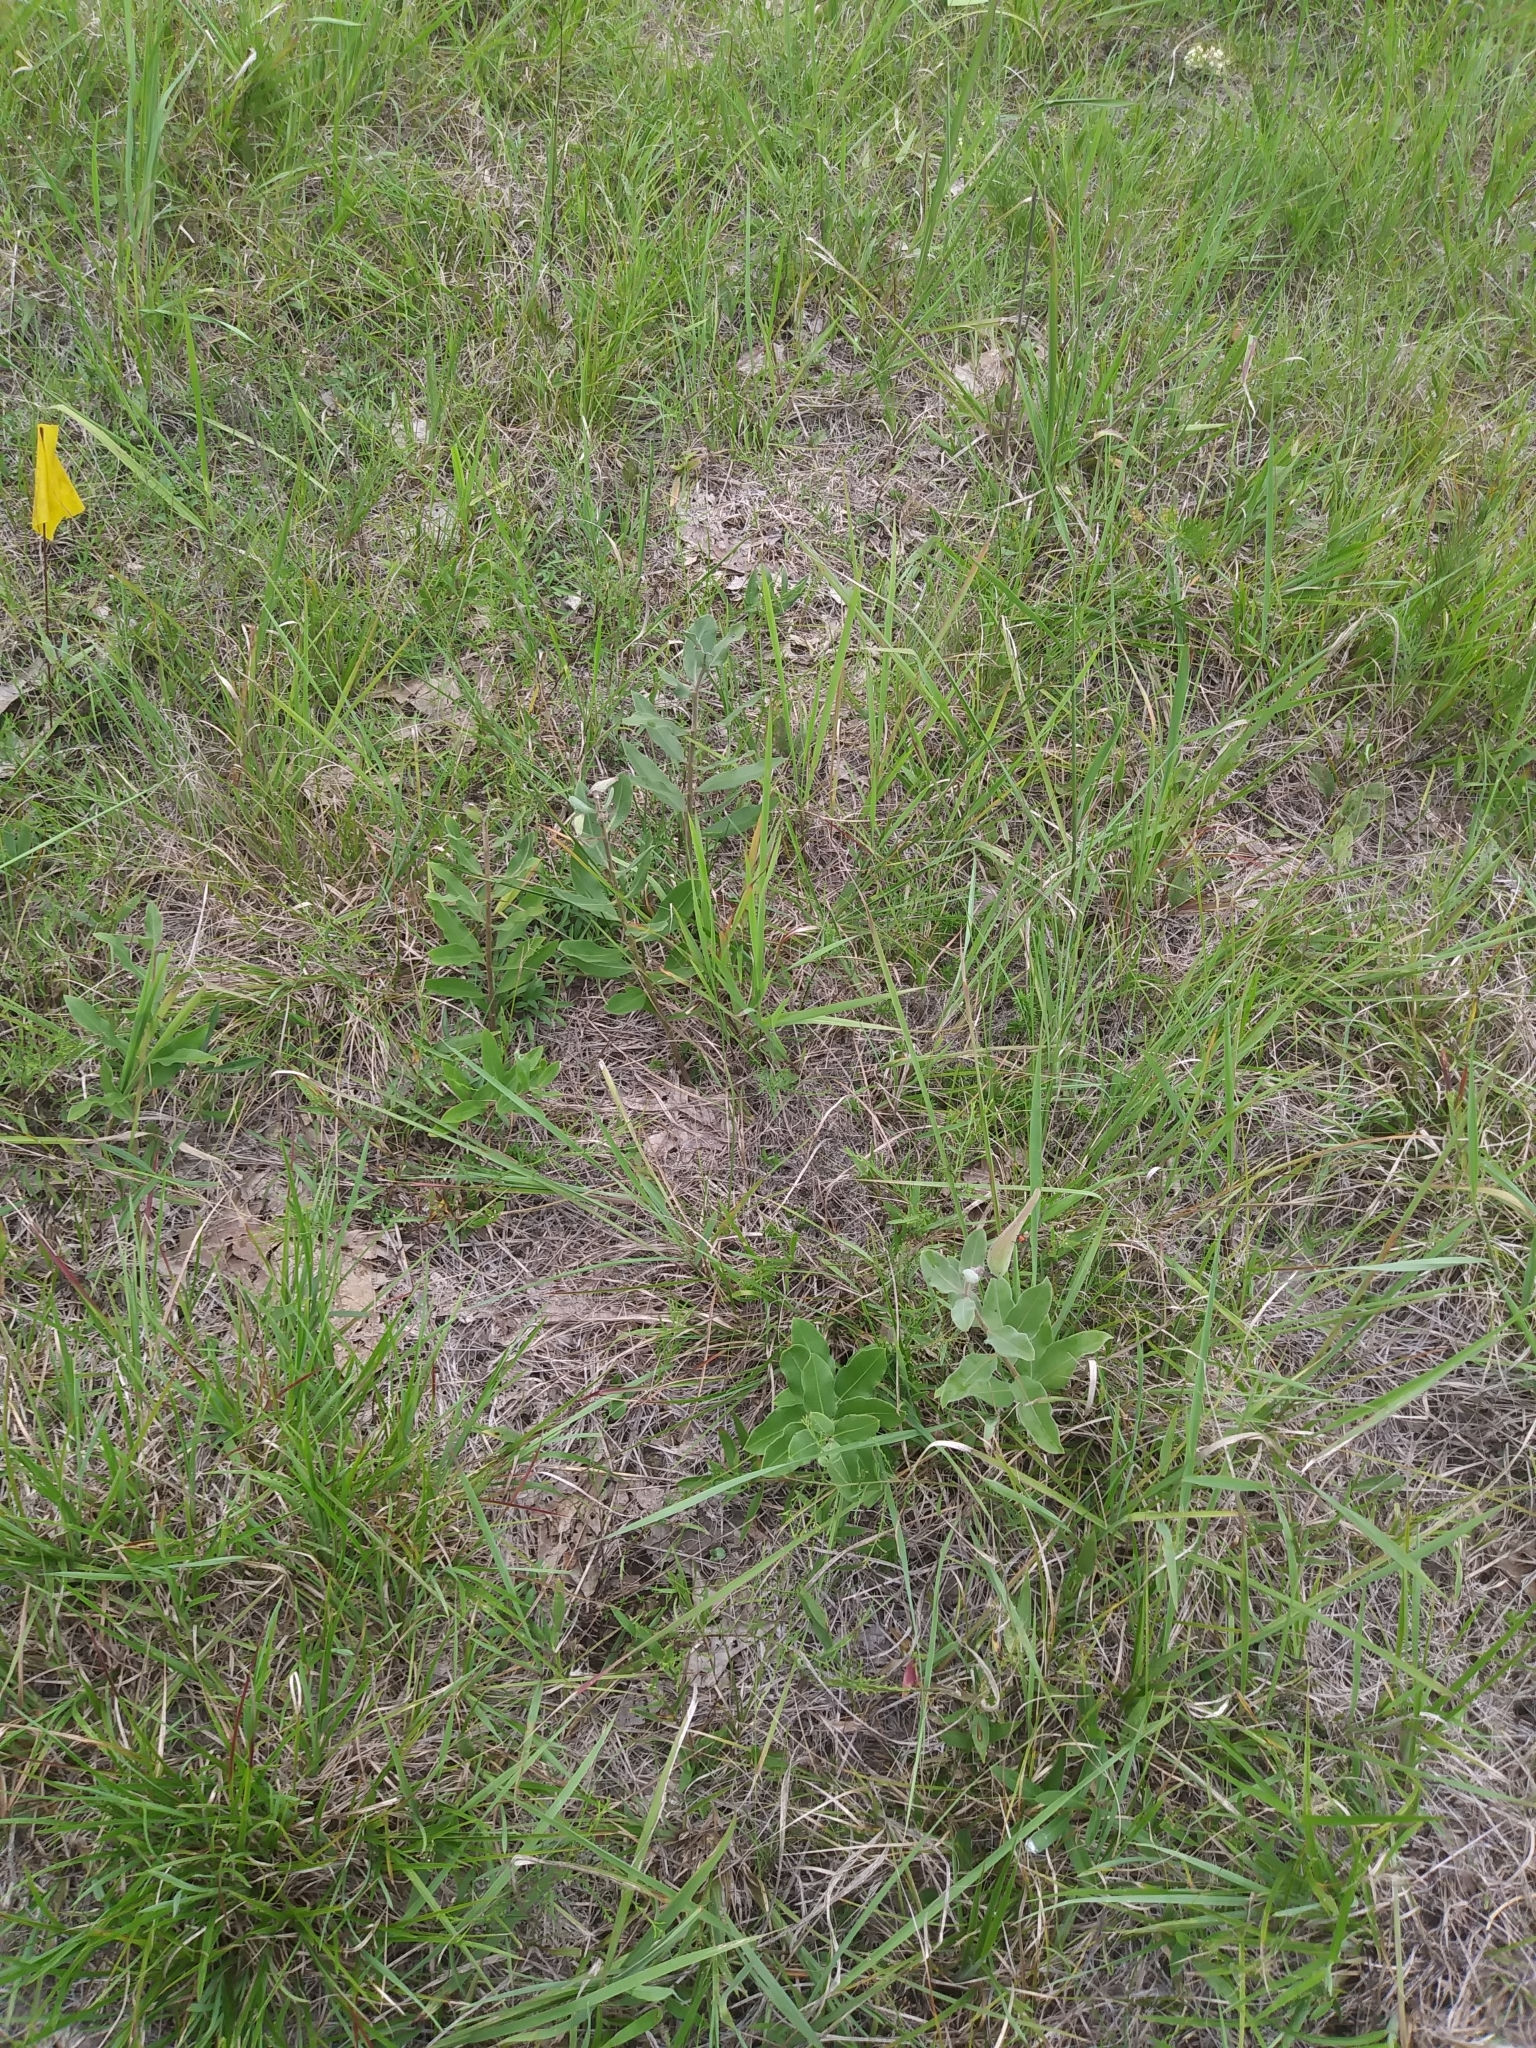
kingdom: Plantae
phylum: Tracheophyta
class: Magnoliopsida
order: Gentianales
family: Apocynaceae
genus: Asclepias
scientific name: Asclepias viridiflora
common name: Green comet milkweed
